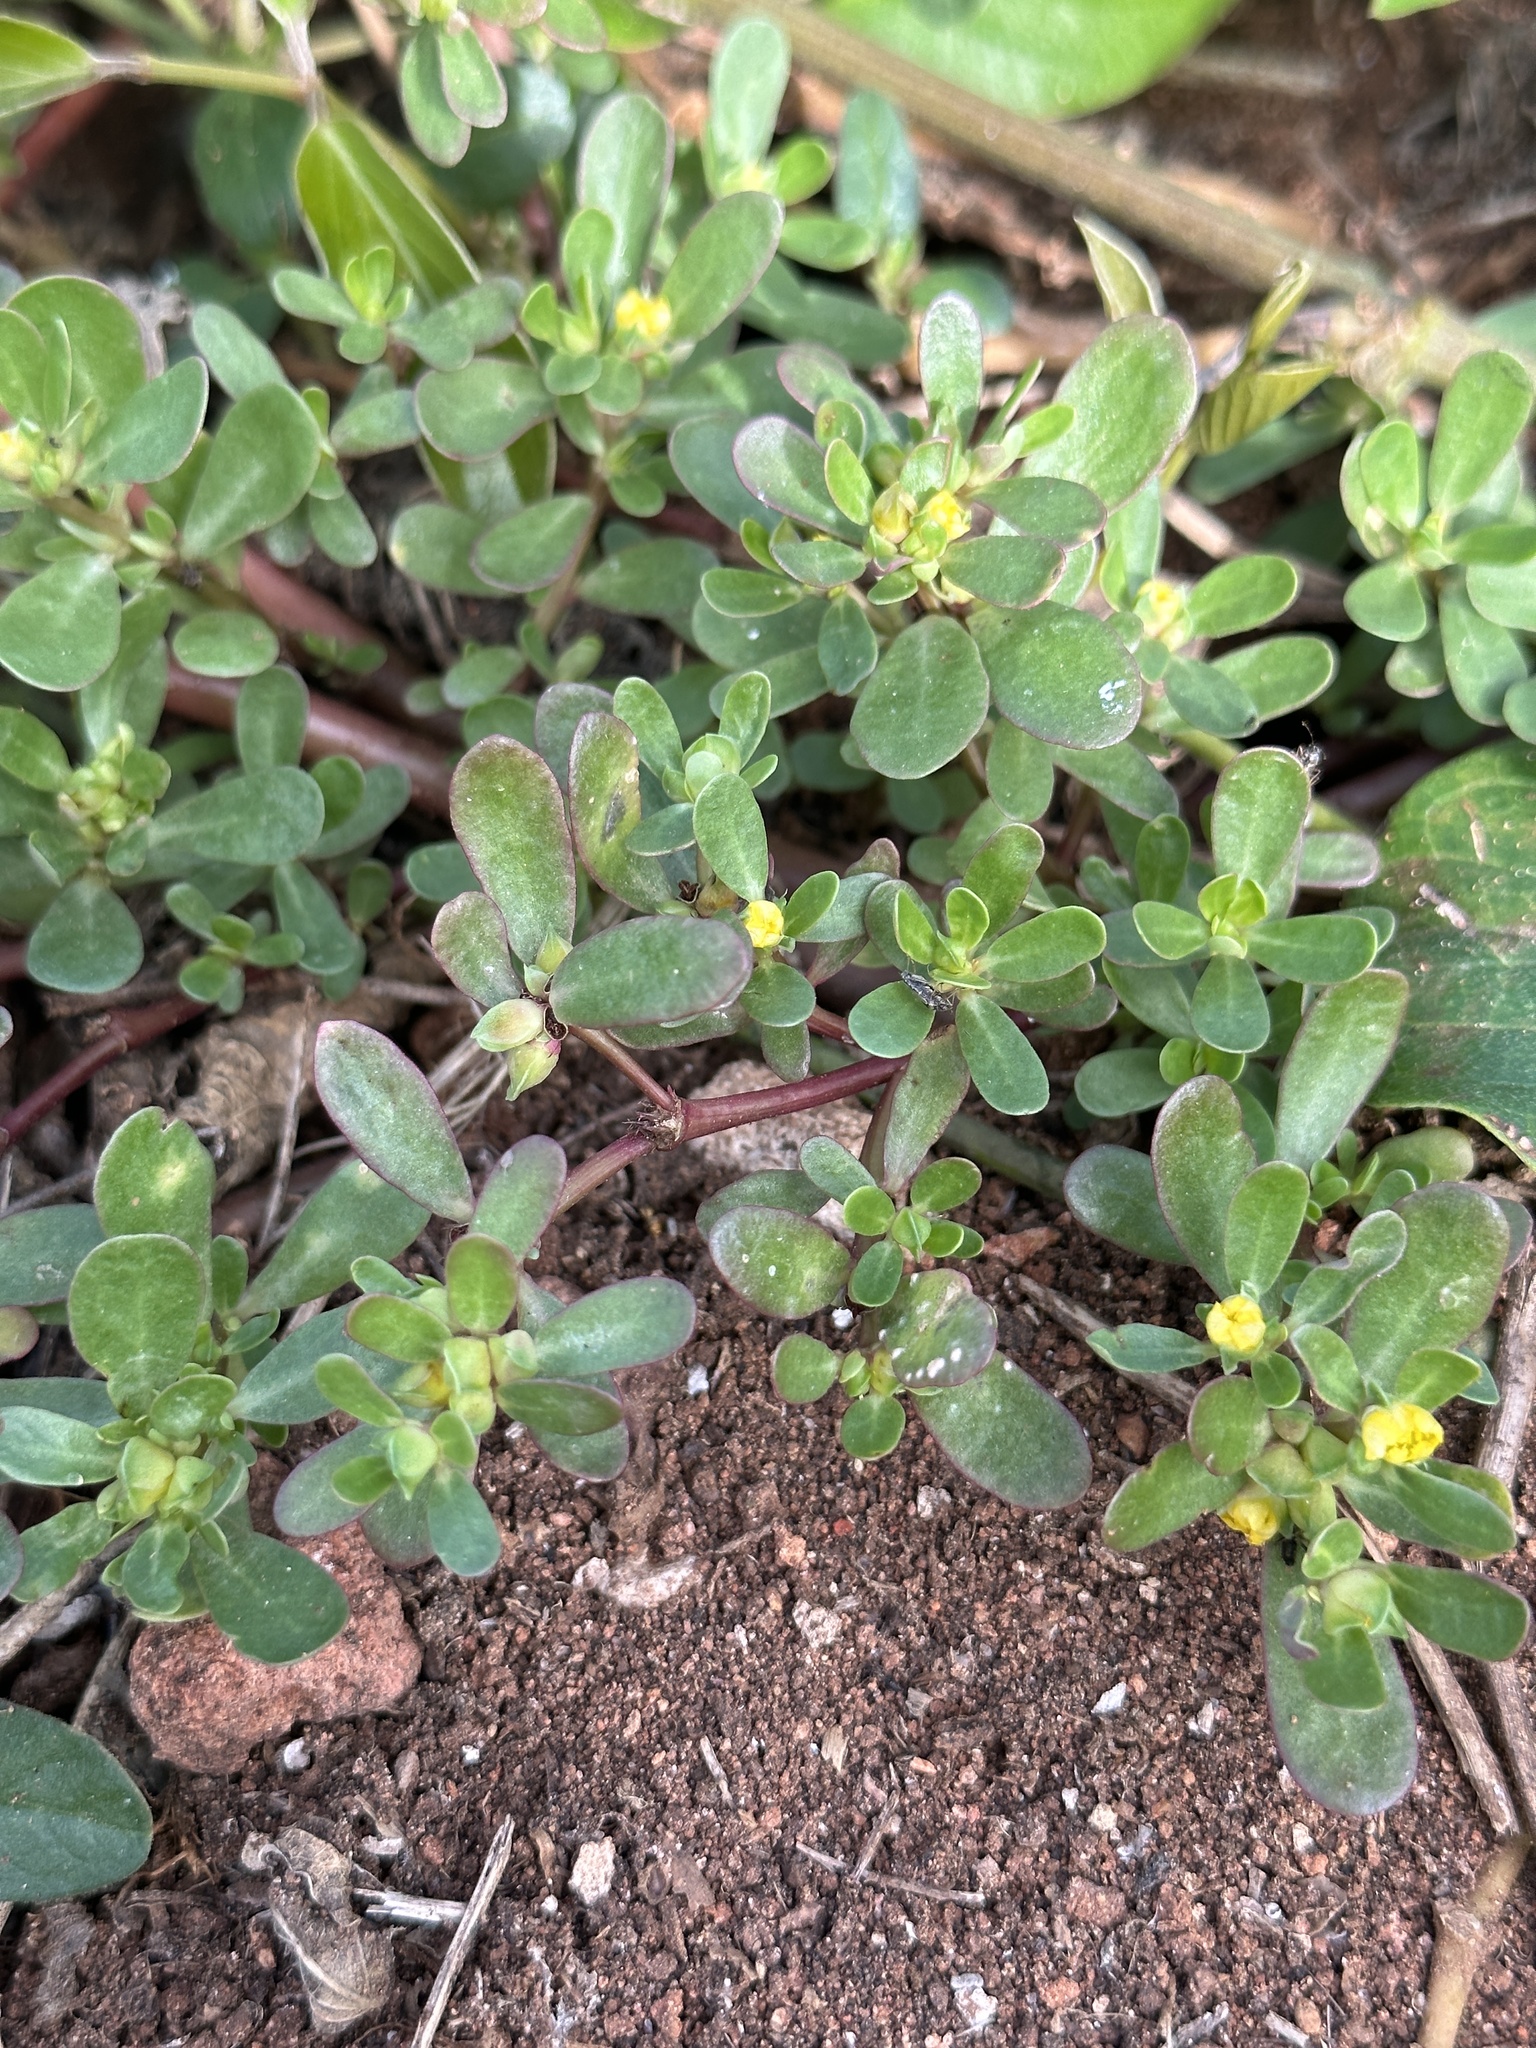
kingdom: Plantae
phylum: Tracheophyta
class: Magnoliopsida
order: Caryophyllales
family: Portulacaceae
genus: Portulaca
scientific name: Portulaca oleracea
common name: Common purslane
